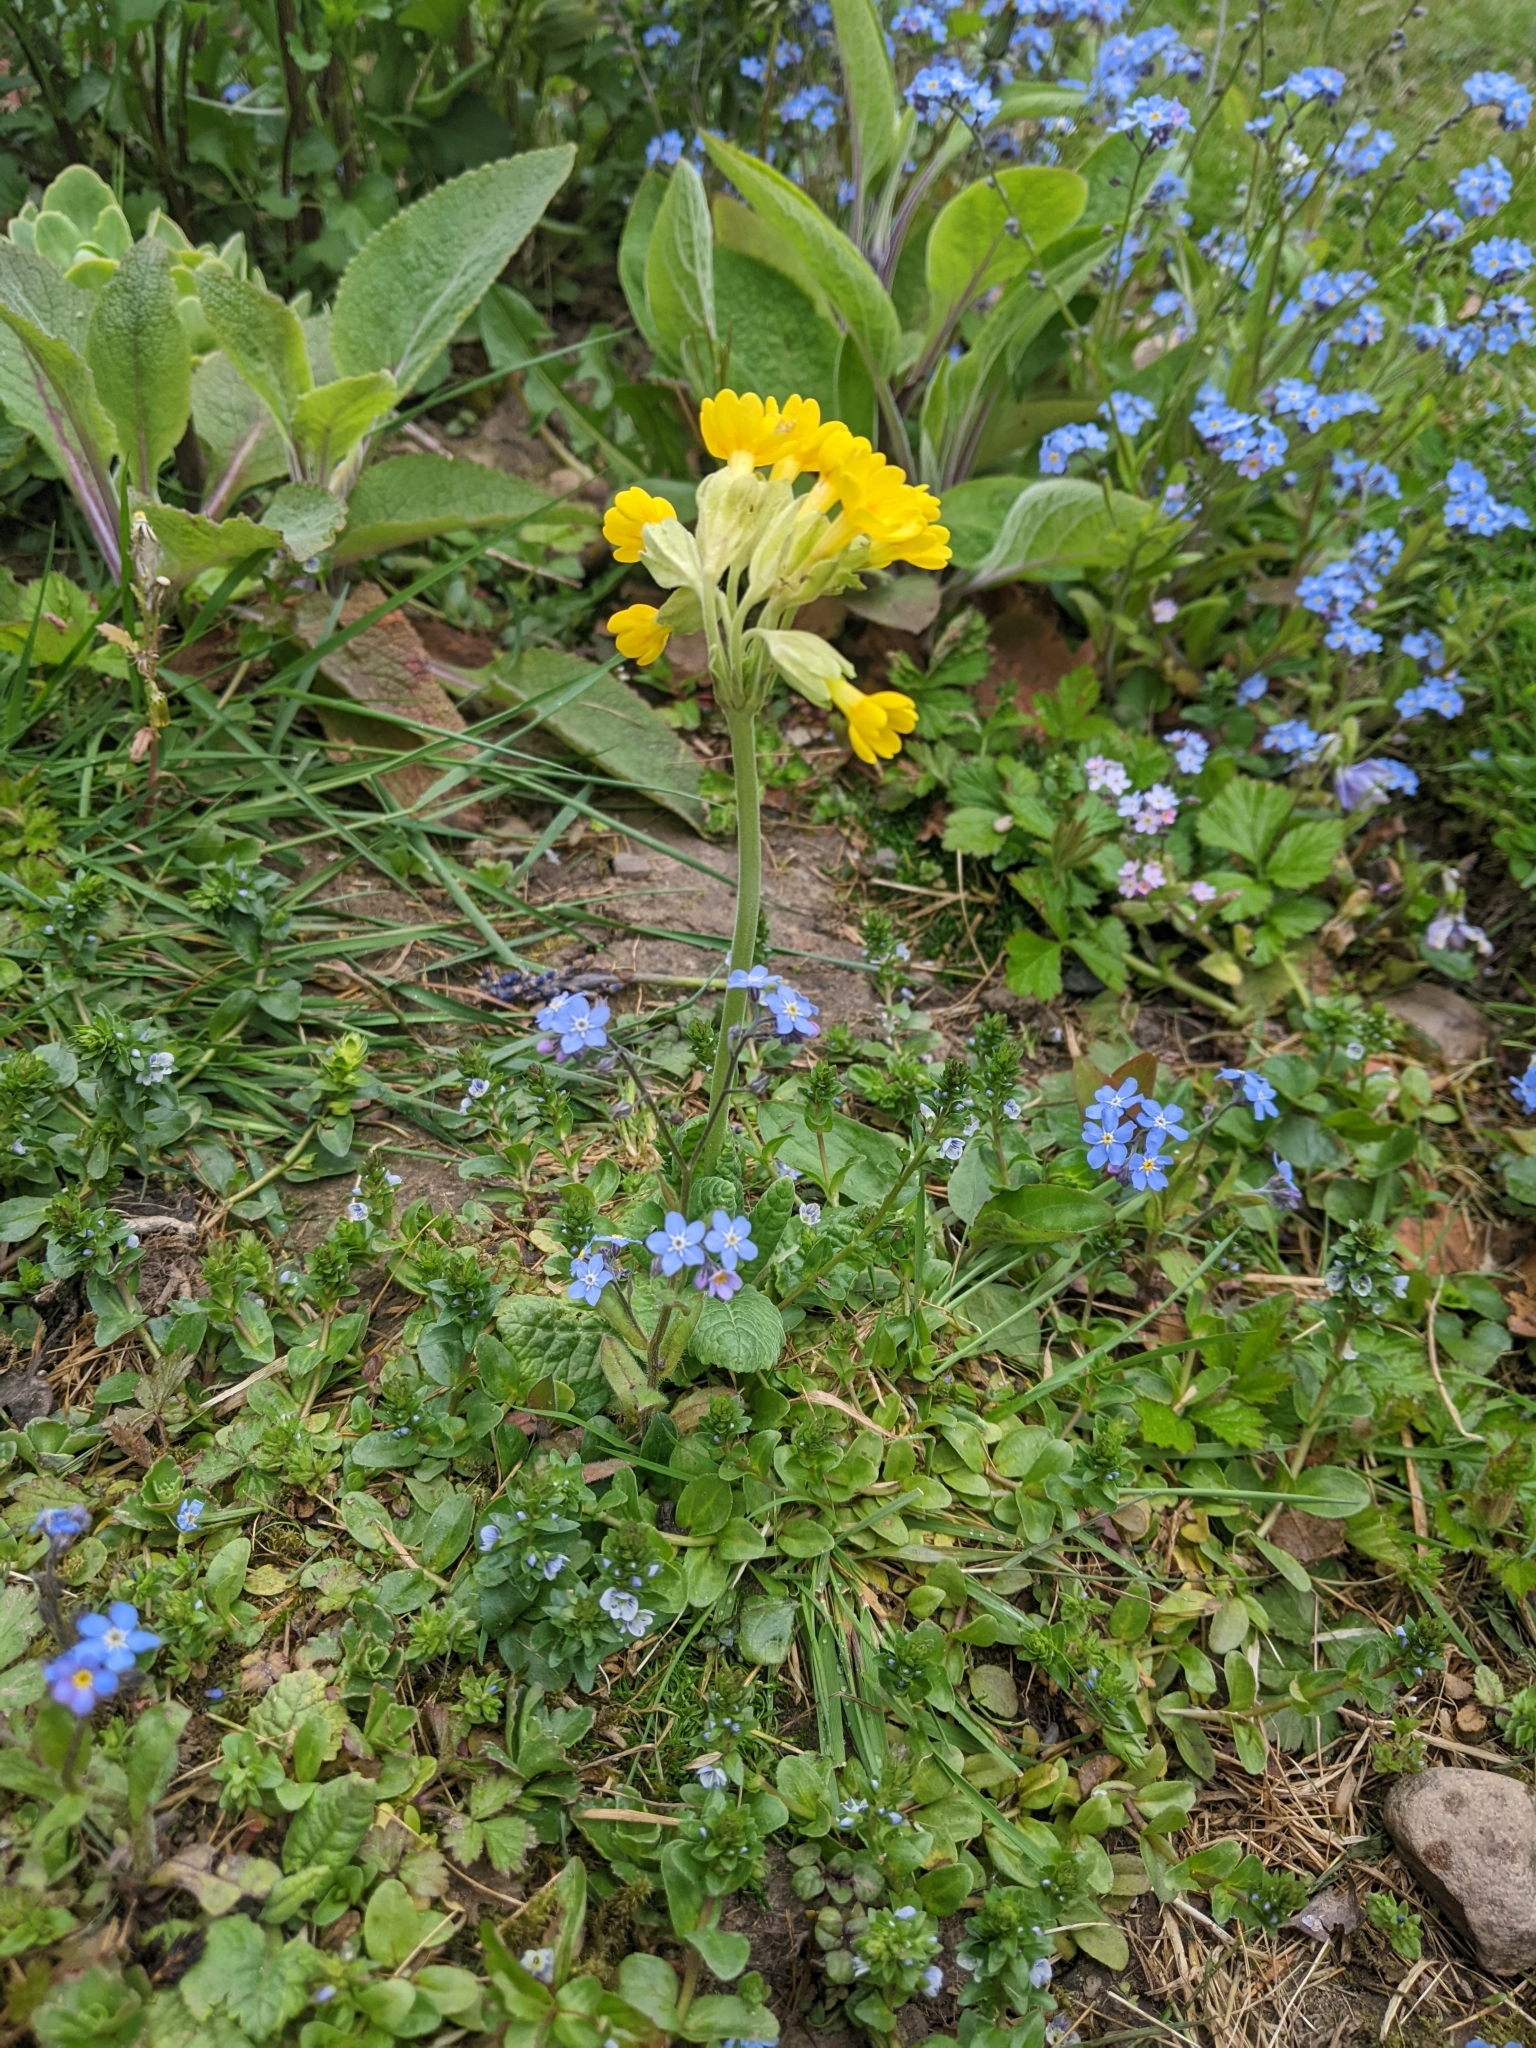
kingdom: Plantae
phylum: Tracheophyta
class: Magnoliopsida
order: Ericales
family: Primulaceae
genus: Primula
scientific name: Primula veris
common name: Cowslip
